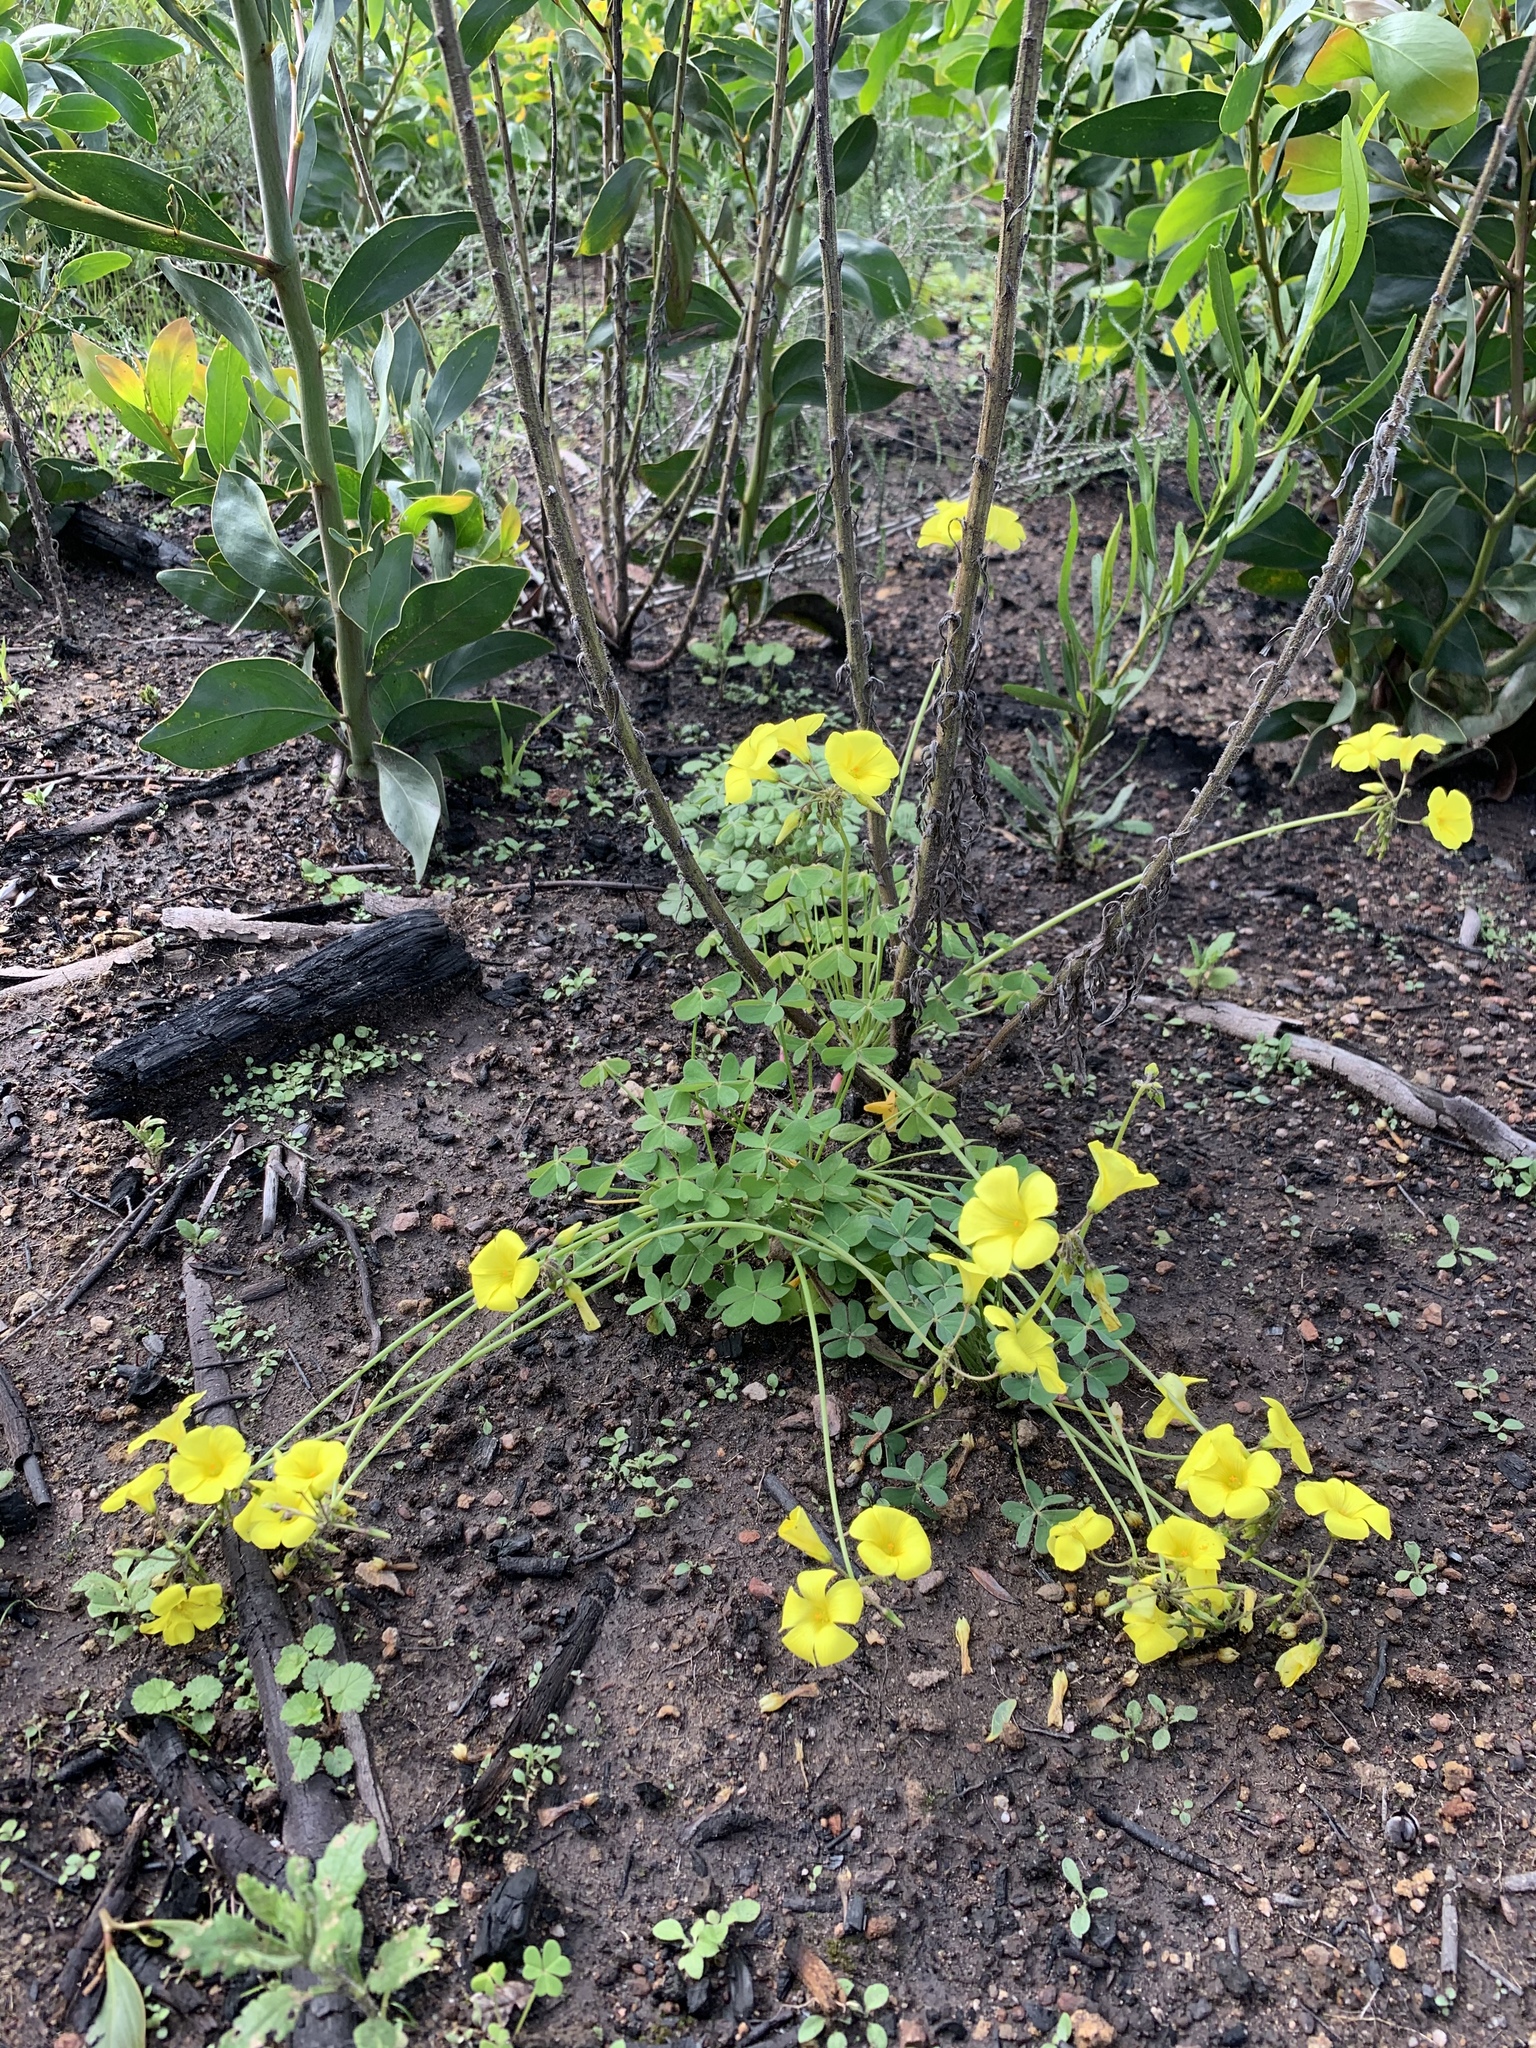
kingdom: Plantae
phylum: Tracheophyta
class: Magnoliopsida
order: Oxalidales
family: Oxalidaceae
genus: Oxalis
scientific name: Oxalis pes-caprae
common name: Bermuda-buttercup
